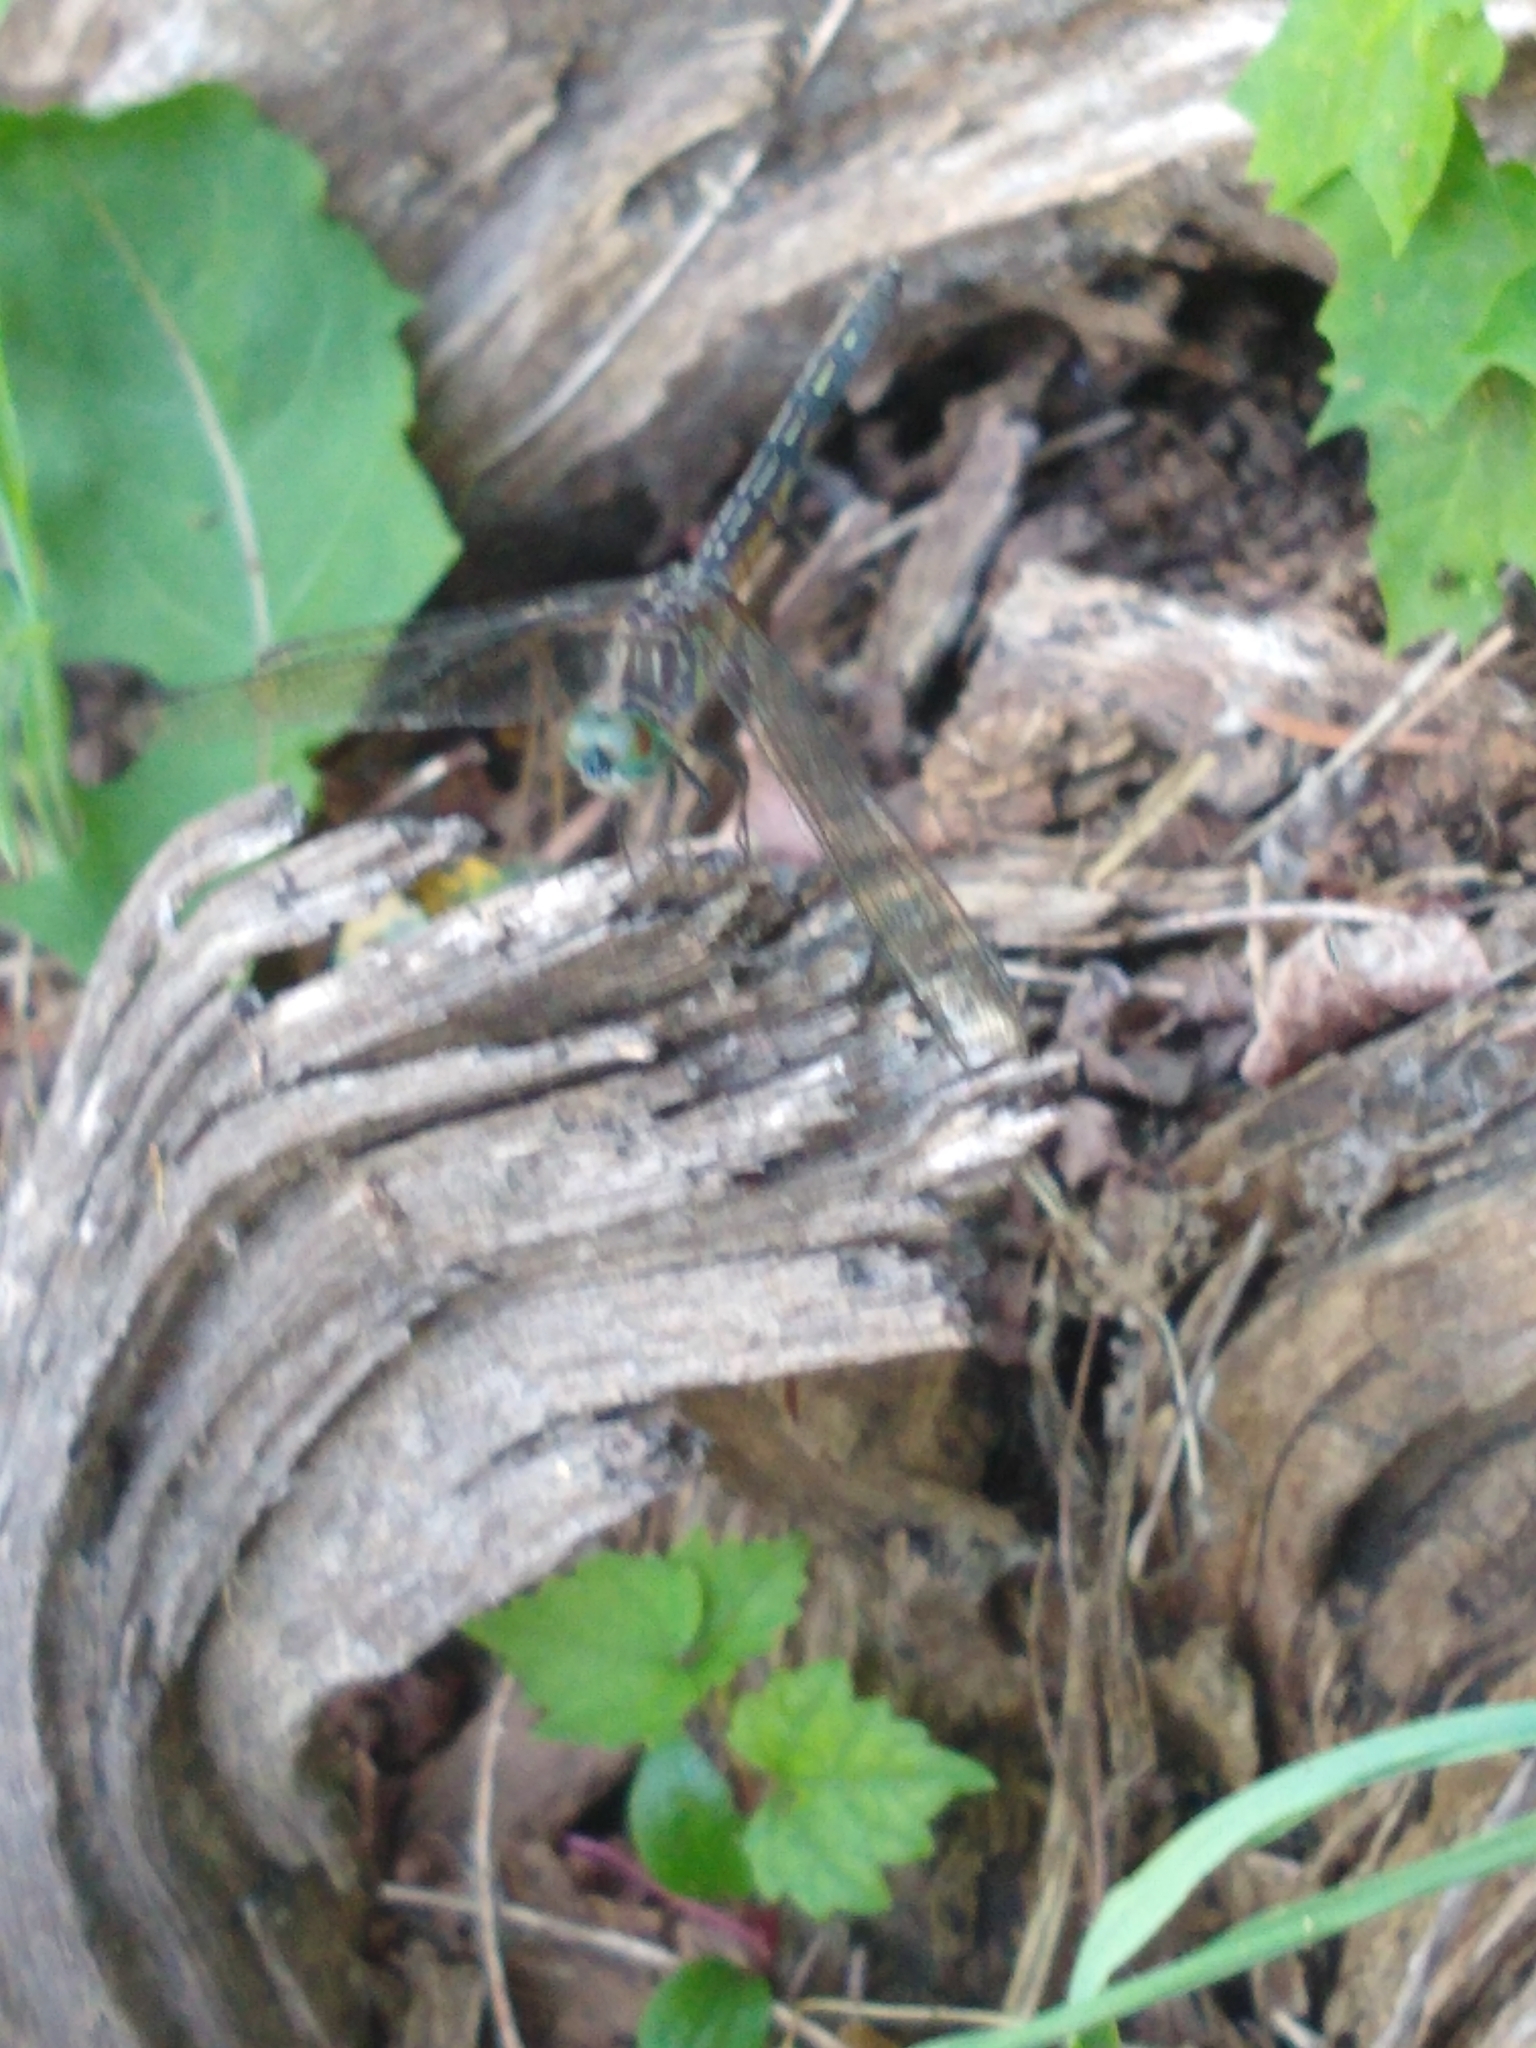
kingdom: Animalia
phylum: Arthropoda
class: Insecta
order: Odonata
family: Libellulidae
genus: Pachydiplax
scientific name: Pachydiplax longipennis
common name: Blue dasher
